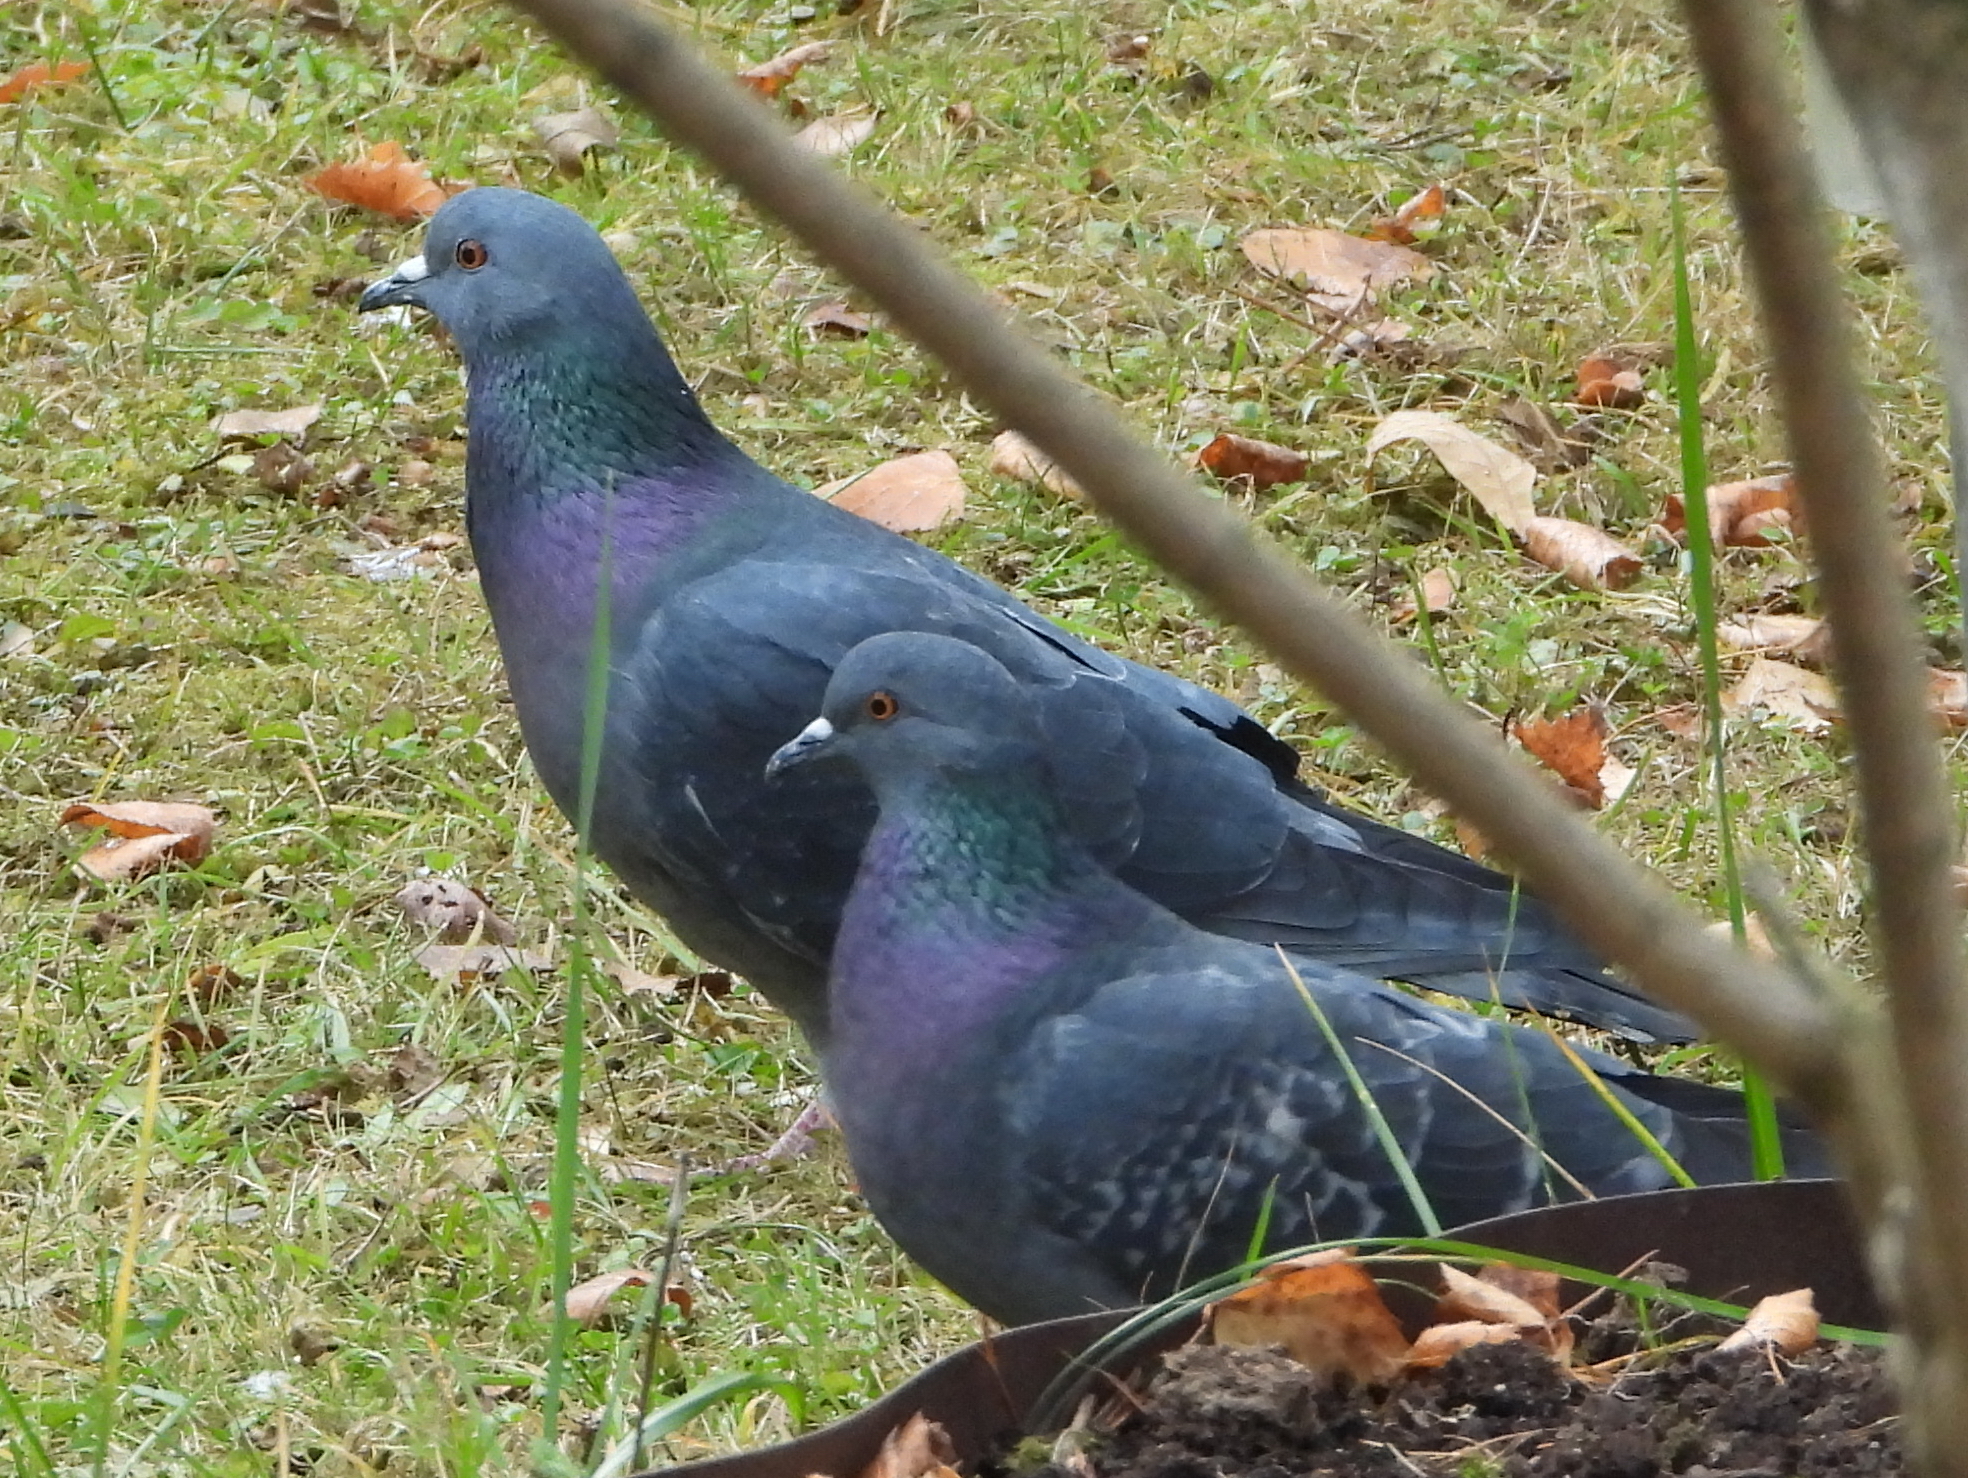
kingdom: Animalia
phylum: Chordata
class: Aves
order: Columbiformes
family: Columbidae
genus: Columba
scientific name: Columba livia
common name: Rock pigeon
